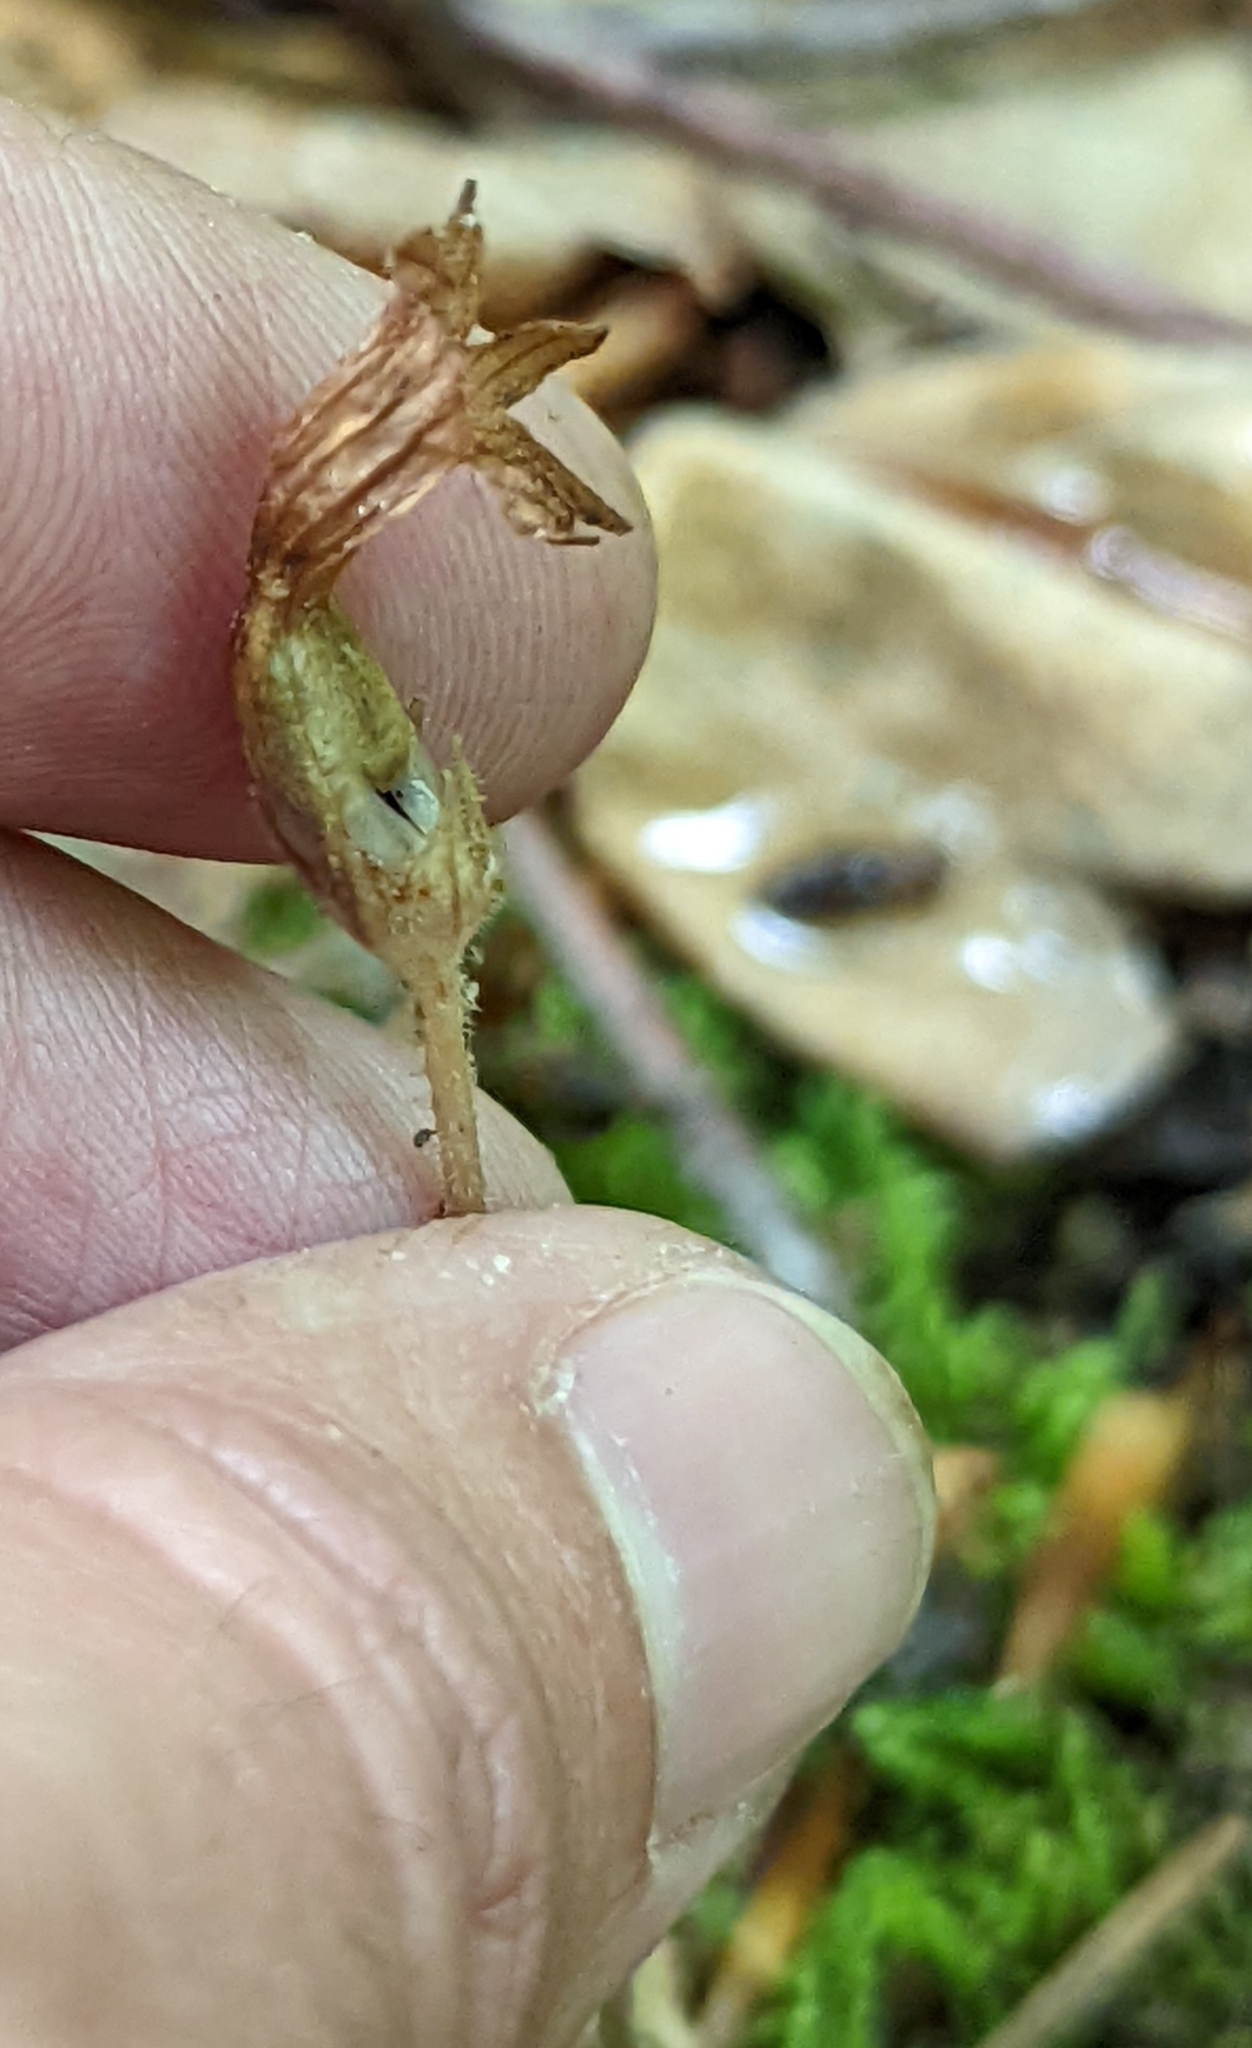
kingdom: Plantae
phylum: Tracheophyta
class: Magnoliopsida
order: Lamiales
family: Orobanchaceae
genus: Aphyllon
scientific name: Aphyllon uniflorum
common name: One-flowered broomrape
